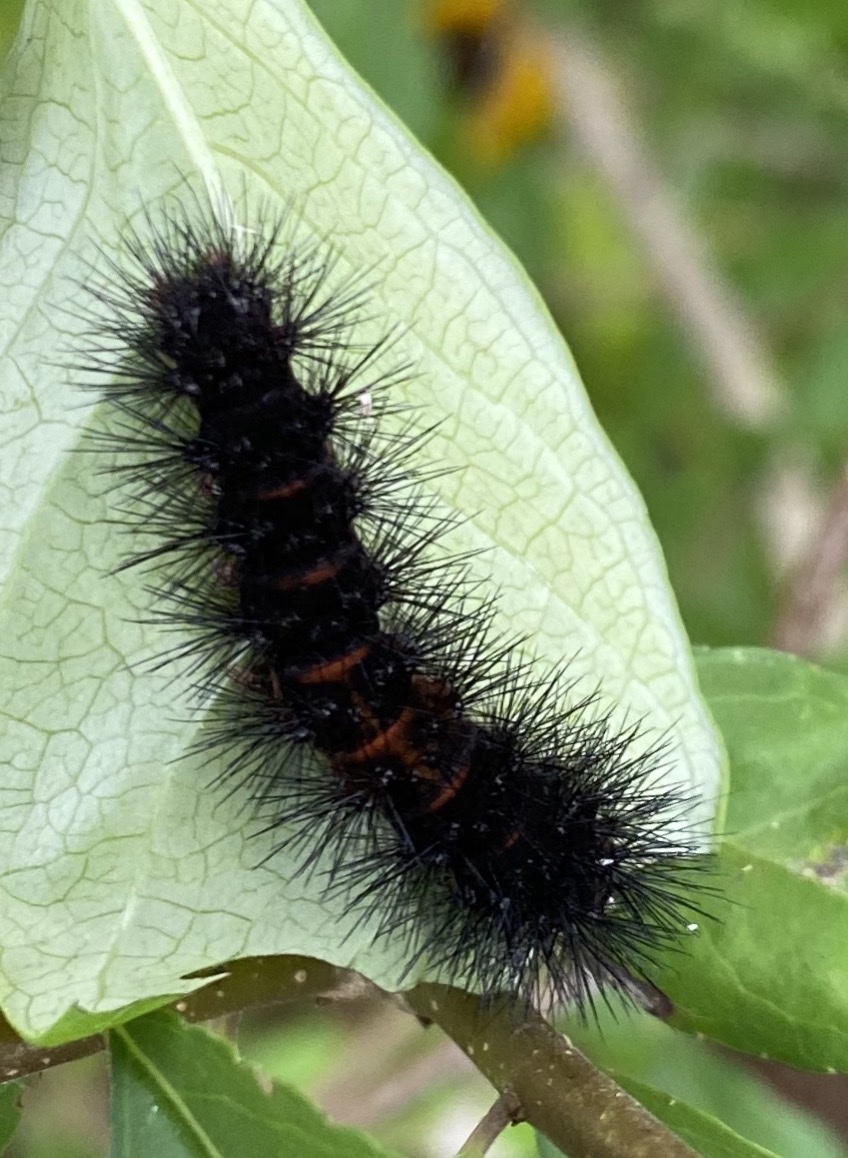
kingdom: Animalia
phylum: Arthropoda
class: Insecta
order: Lepidoptera
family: Erebidae
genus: Hypercompe
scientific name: Hypercompe scribonia
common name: Giant leopard moth
